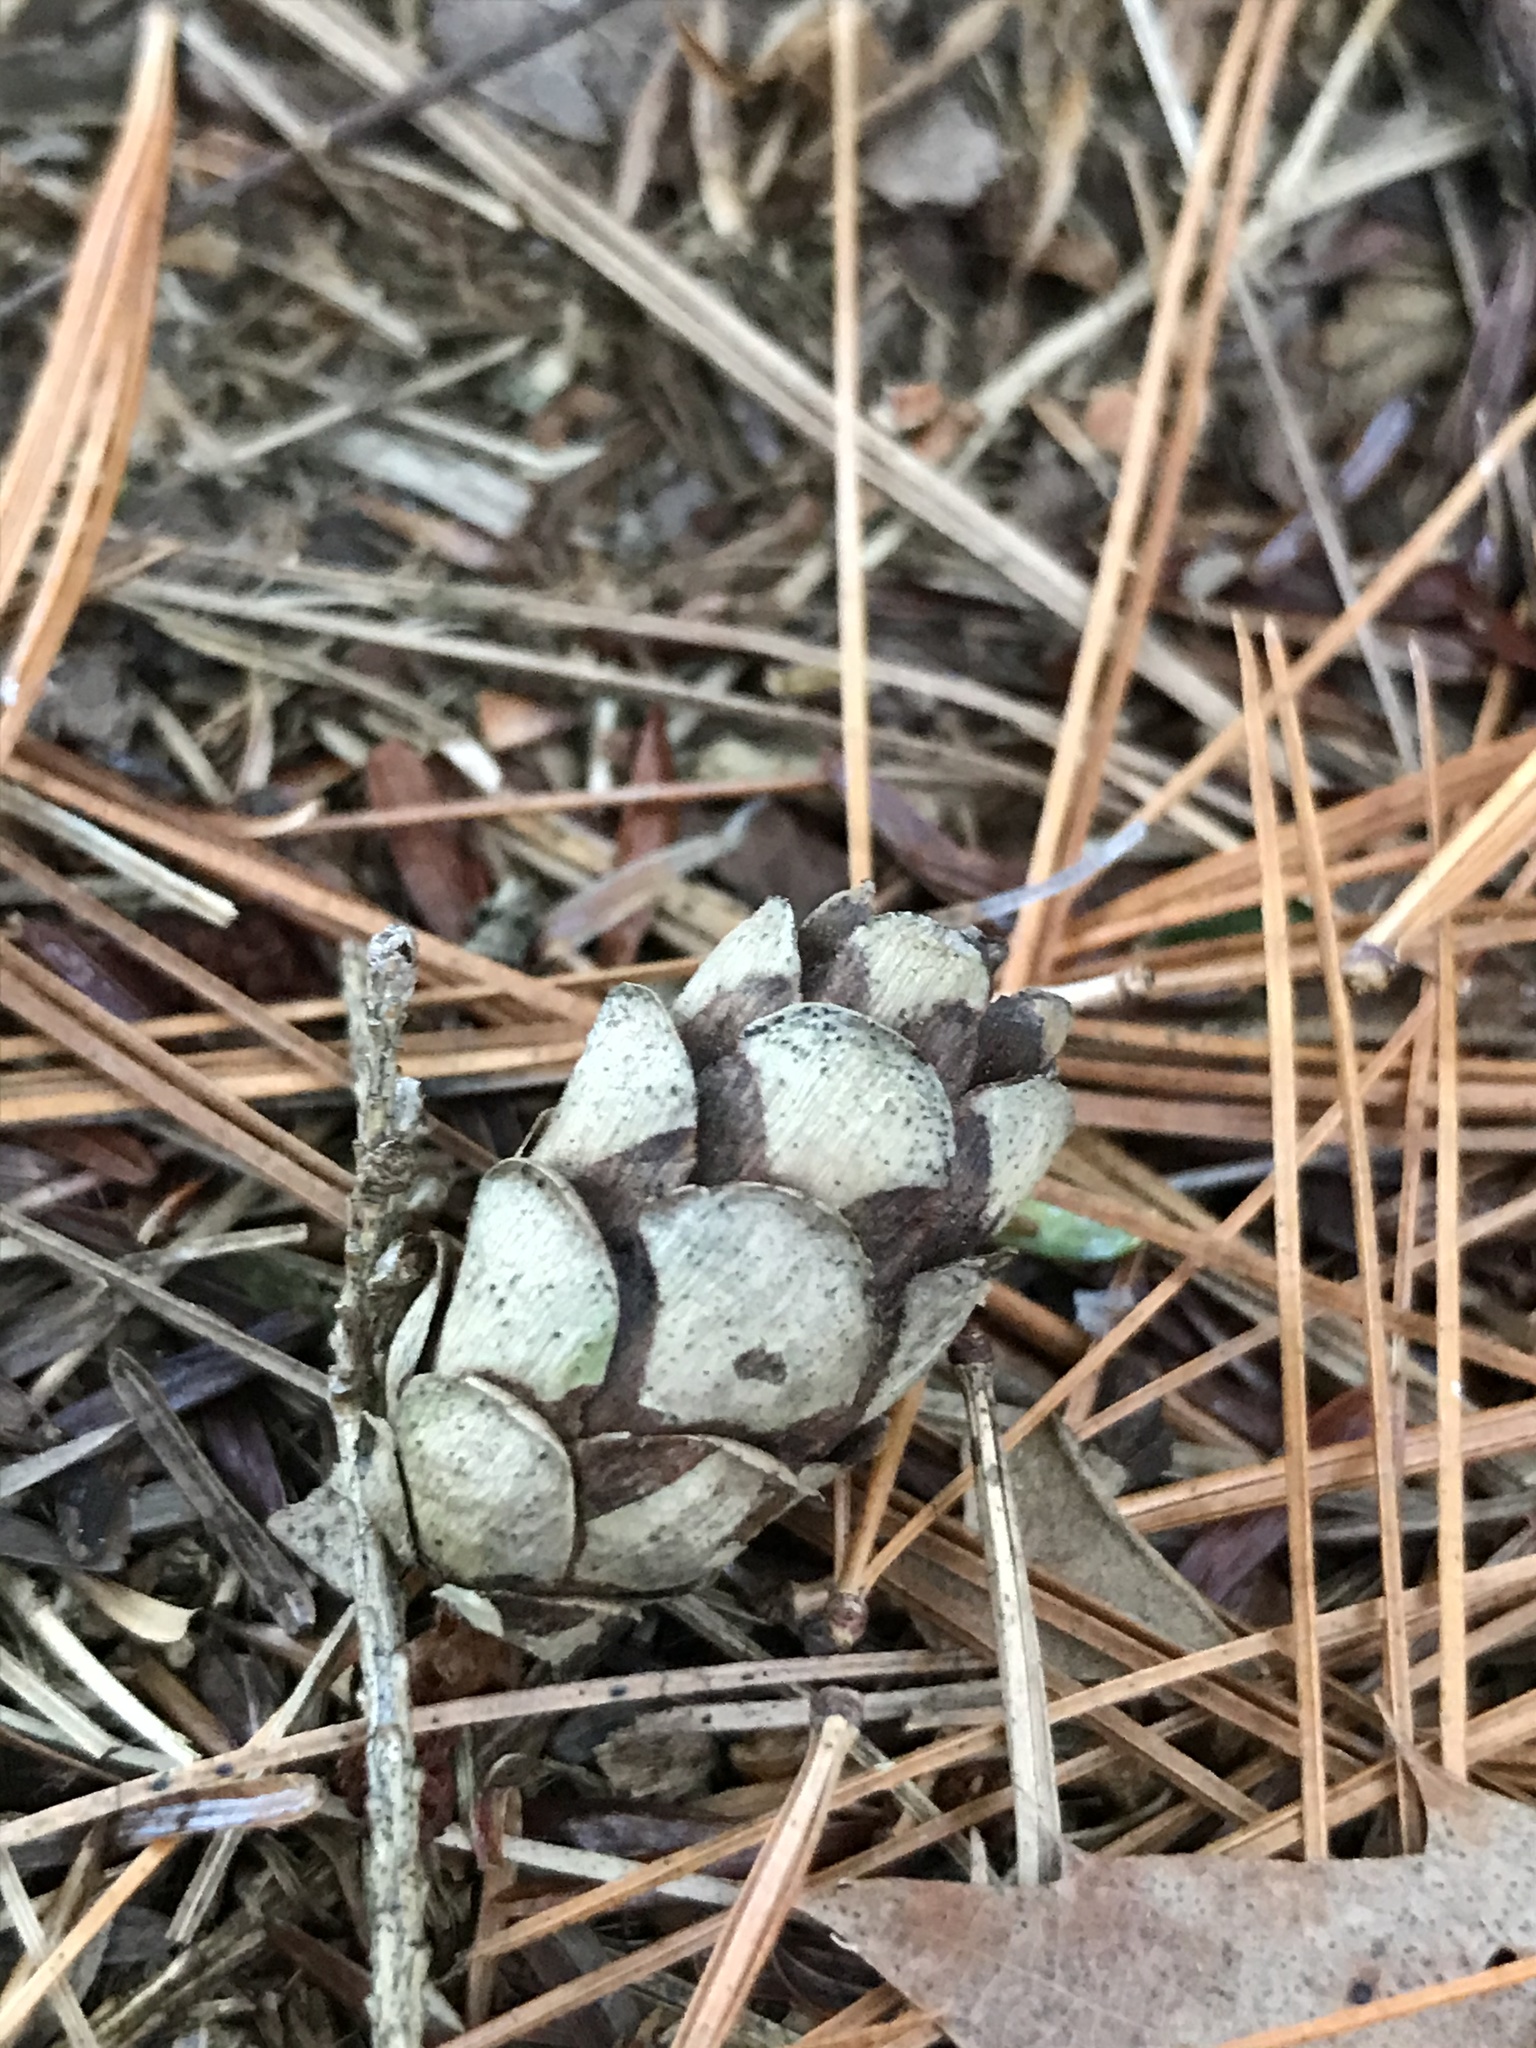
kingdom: Plantae
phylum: Tracheophyta
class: Pinopsida
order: Pinales
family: Pinaceae
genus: Tsuga
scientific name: Tsuga canadensis
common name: Eastern hemlock
